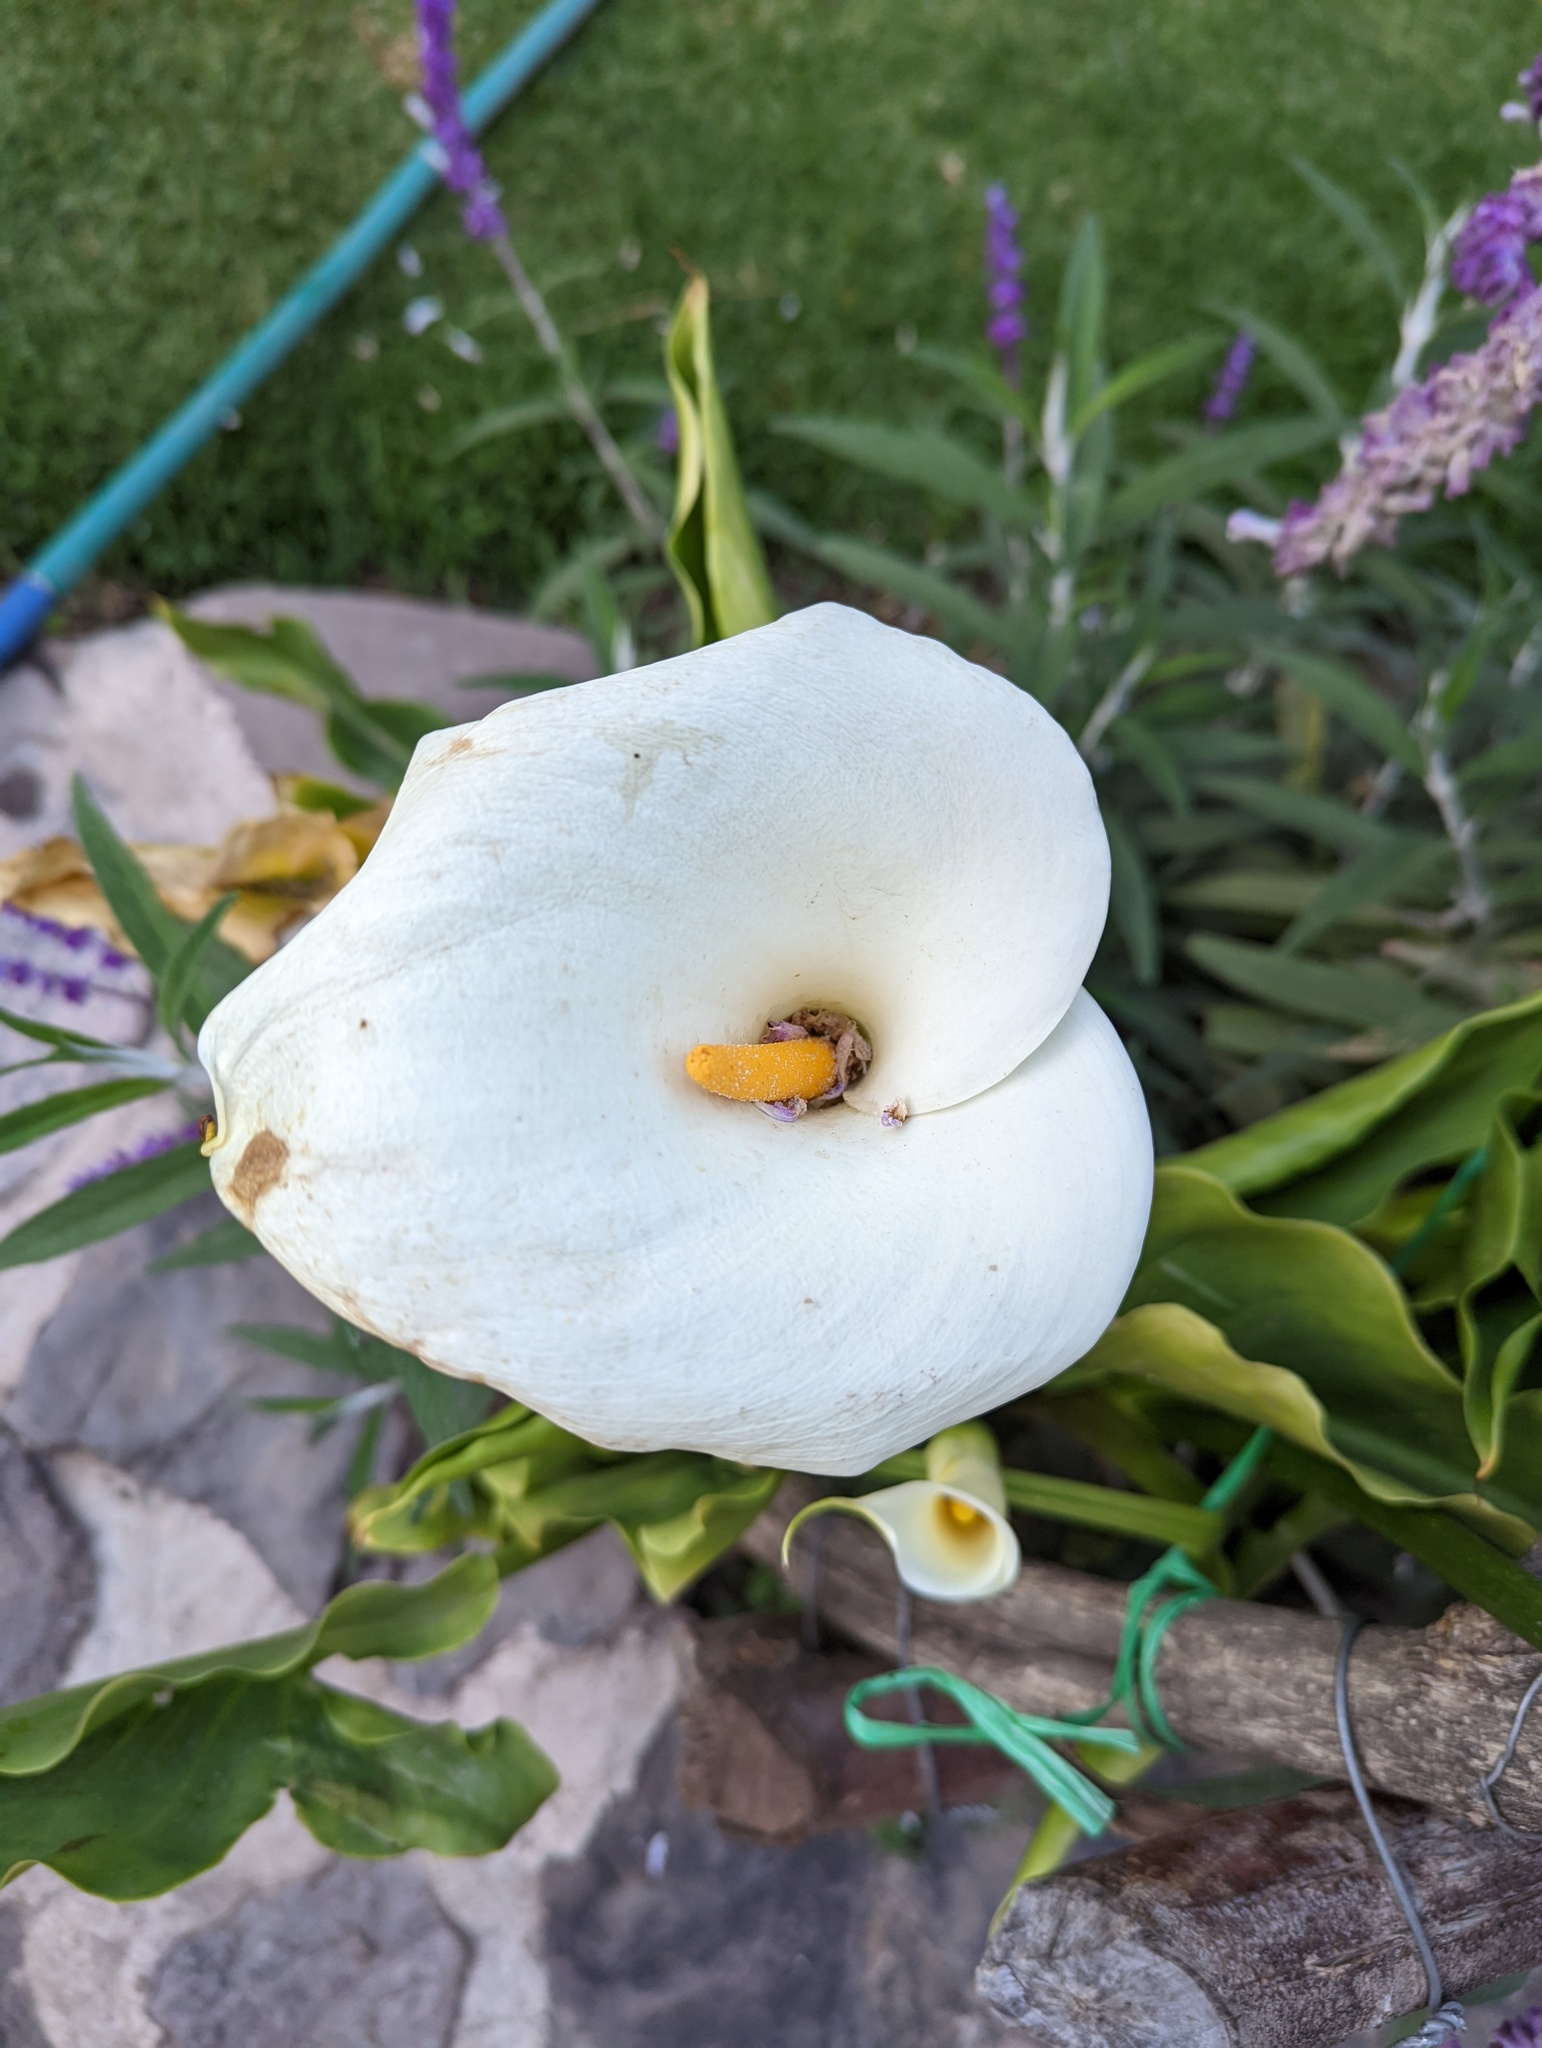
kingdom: Plantae
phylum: Tracheophyta
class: Liliopsida
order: Alismatales
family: Araceae
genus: Zantedeschia
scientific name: Zantedeschia aethiopica
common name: Altar-lily
